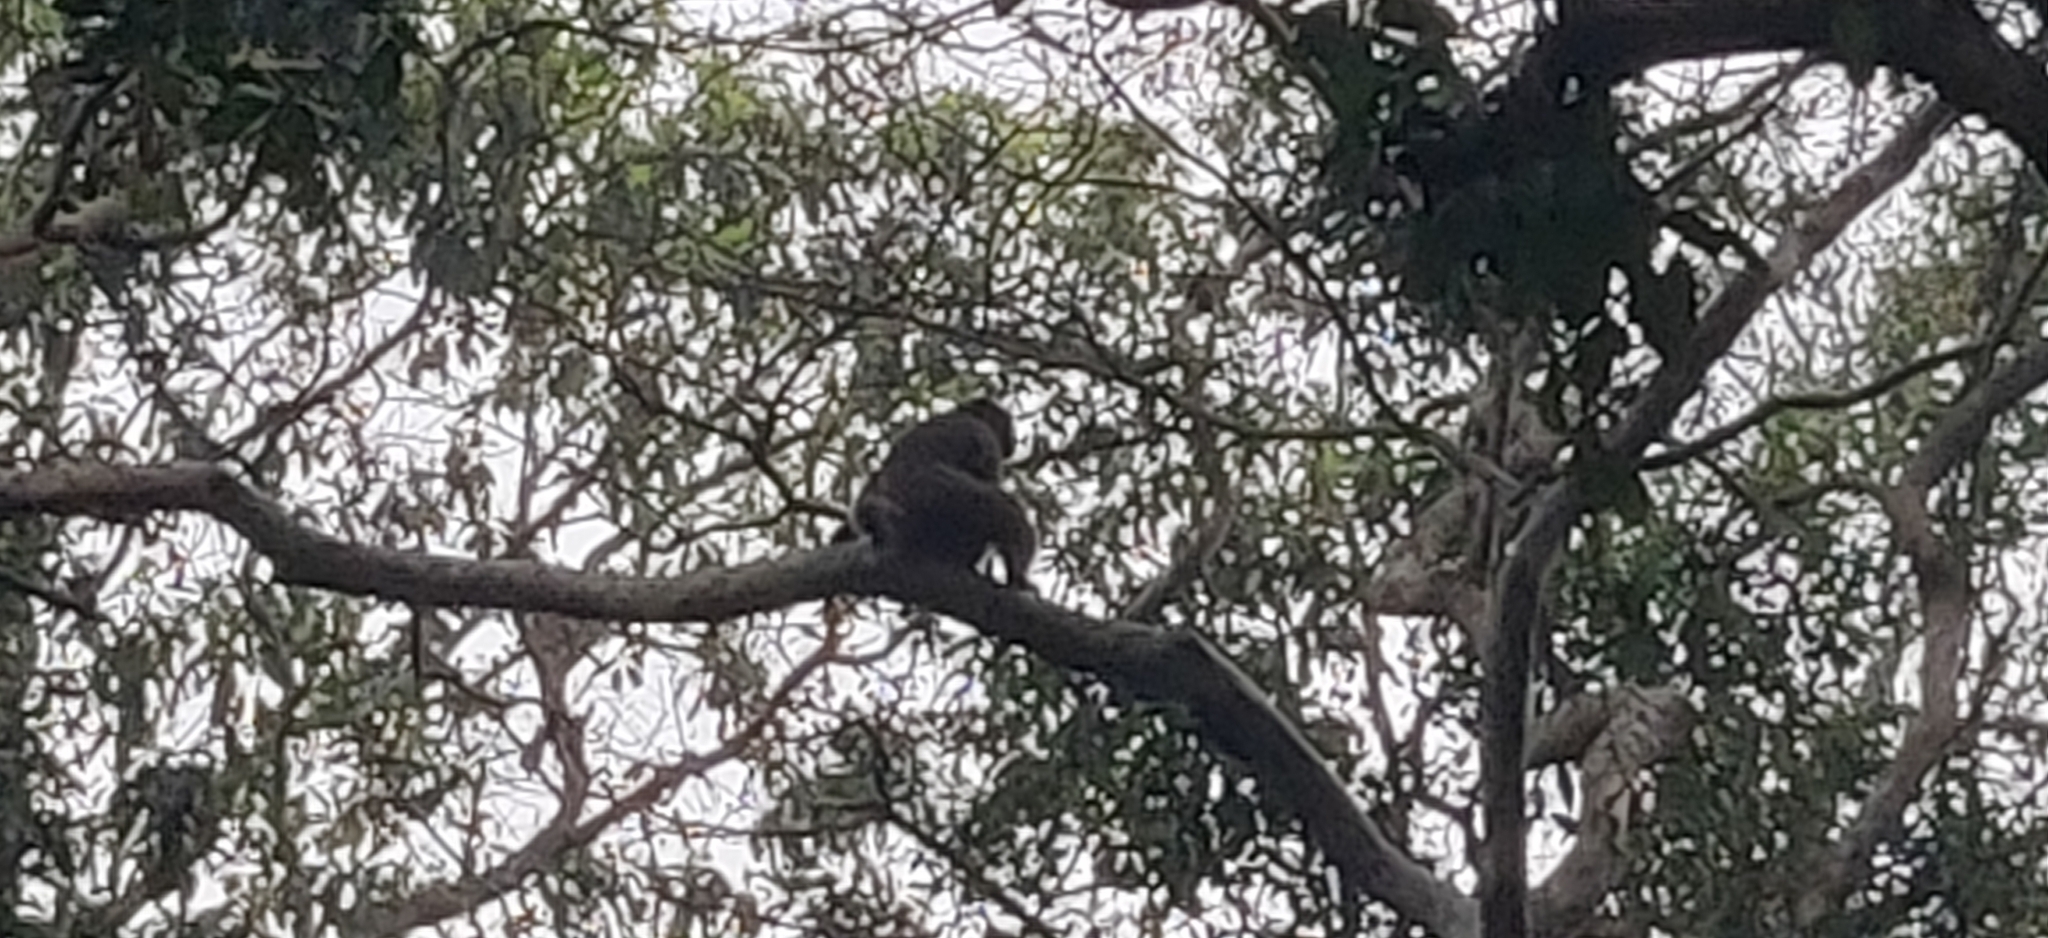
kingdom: Animalia
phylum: Chordata
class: Mammalia
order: Primates
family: Cercopithecidae
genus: Macaca
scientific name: Macaca mulatta
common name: Rhesus monkey
